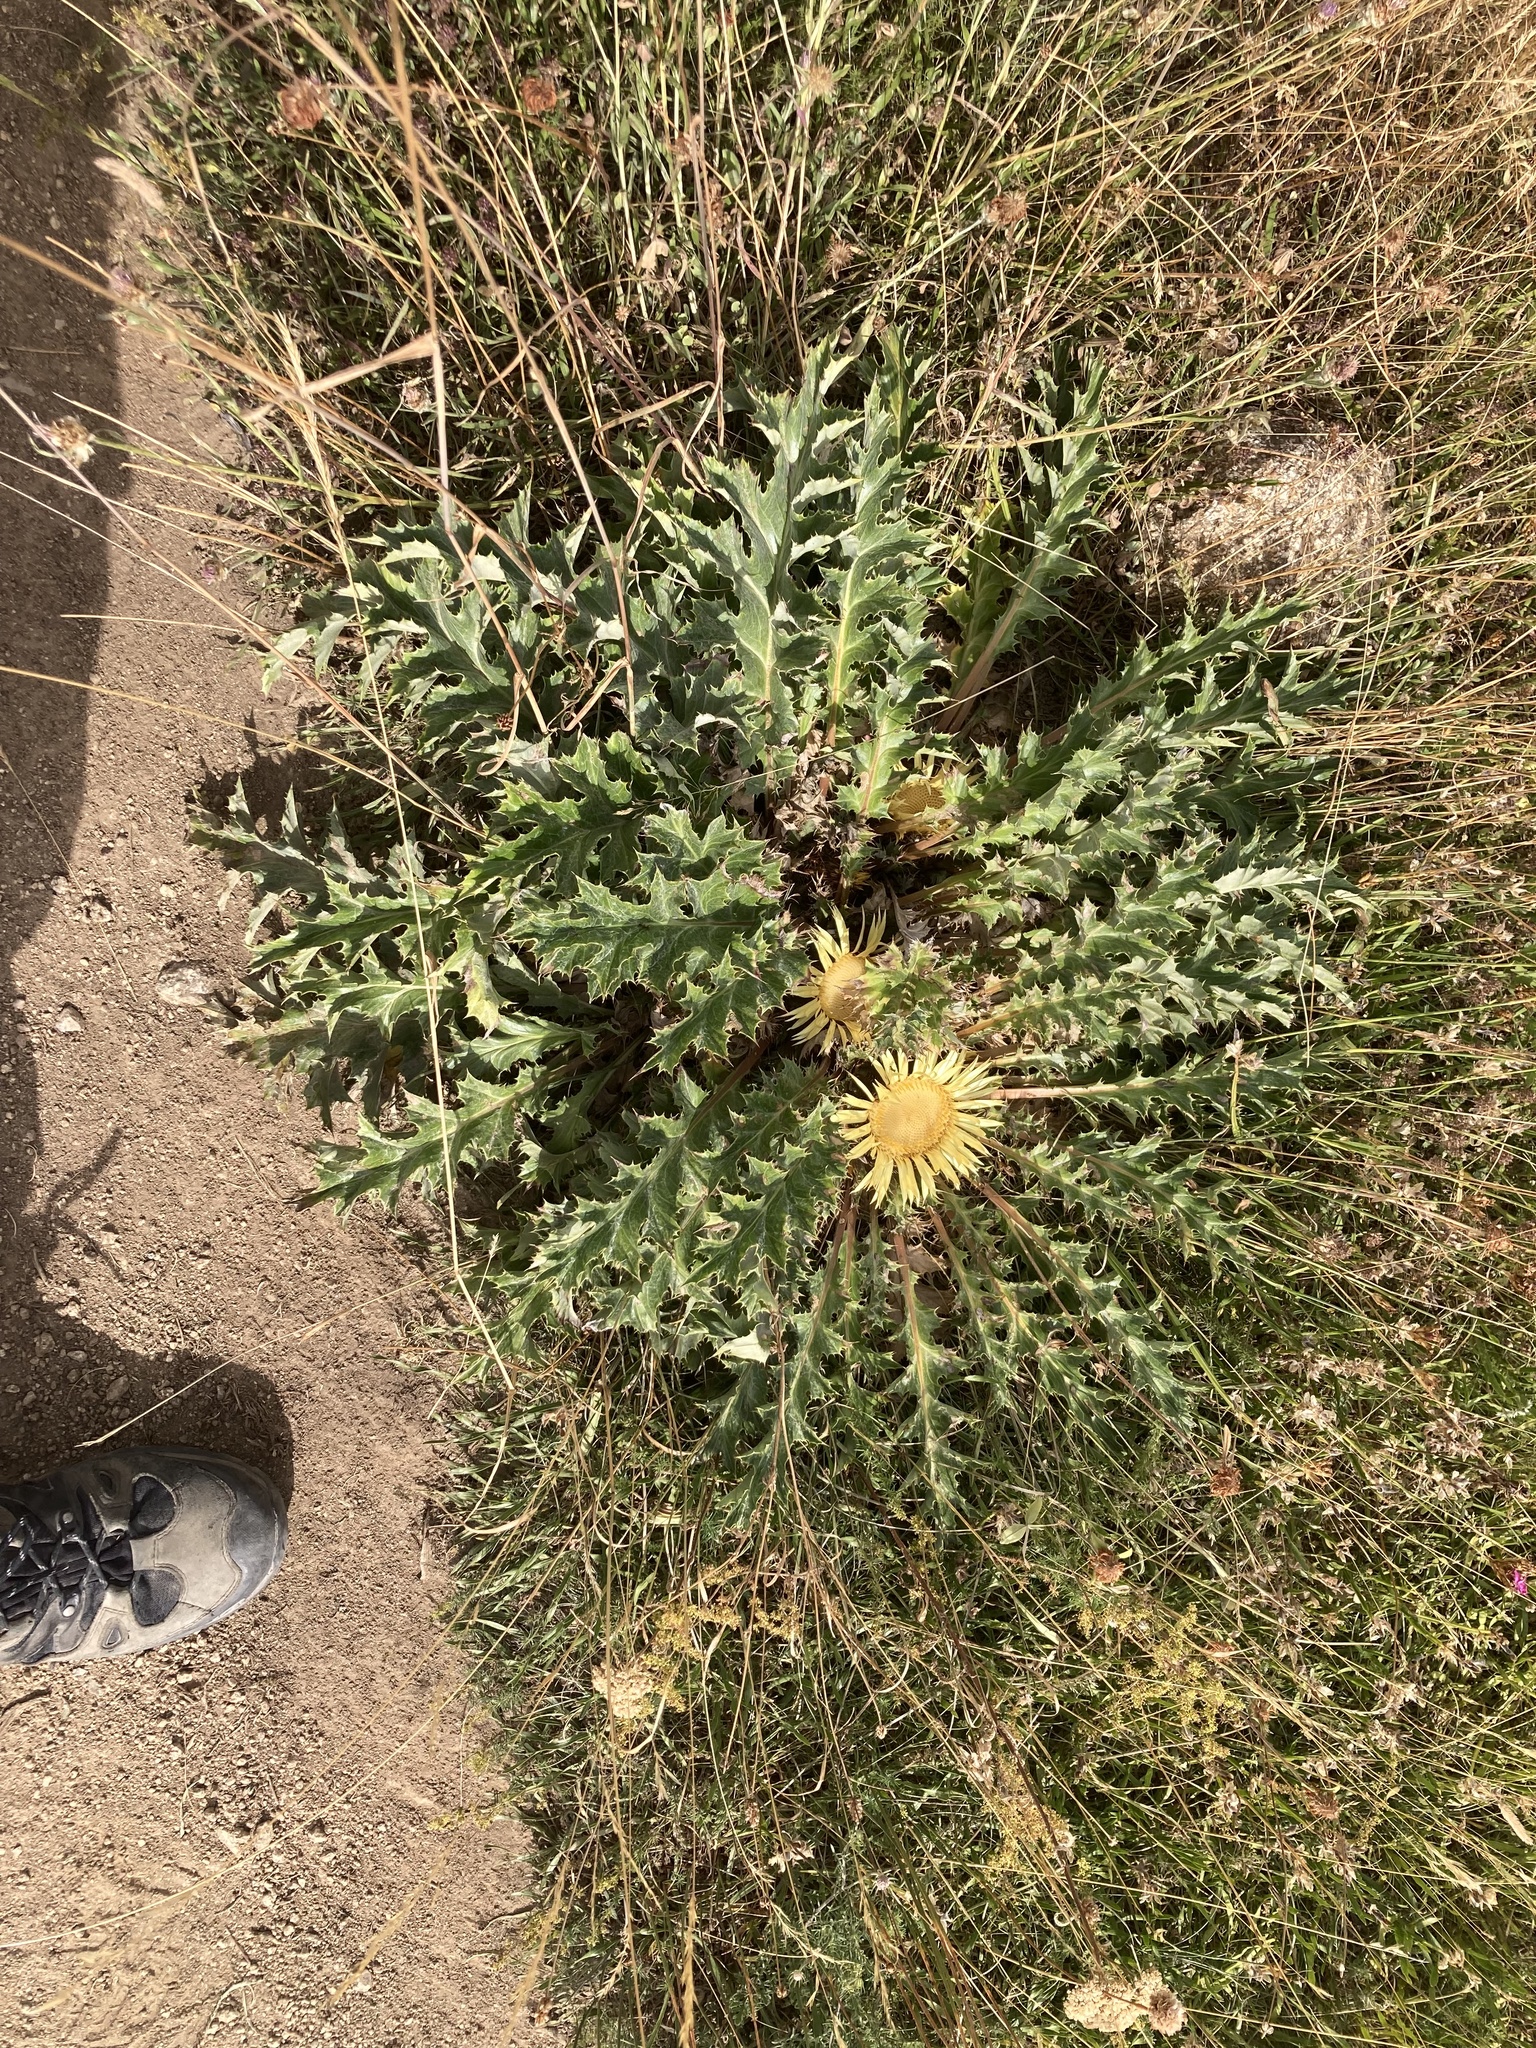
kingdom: Plantae
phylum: Tracheophyta
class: Magnoliopsida
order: Asterales
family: Asteraceae
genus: Carlina
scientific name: Carlina acanthifolia
